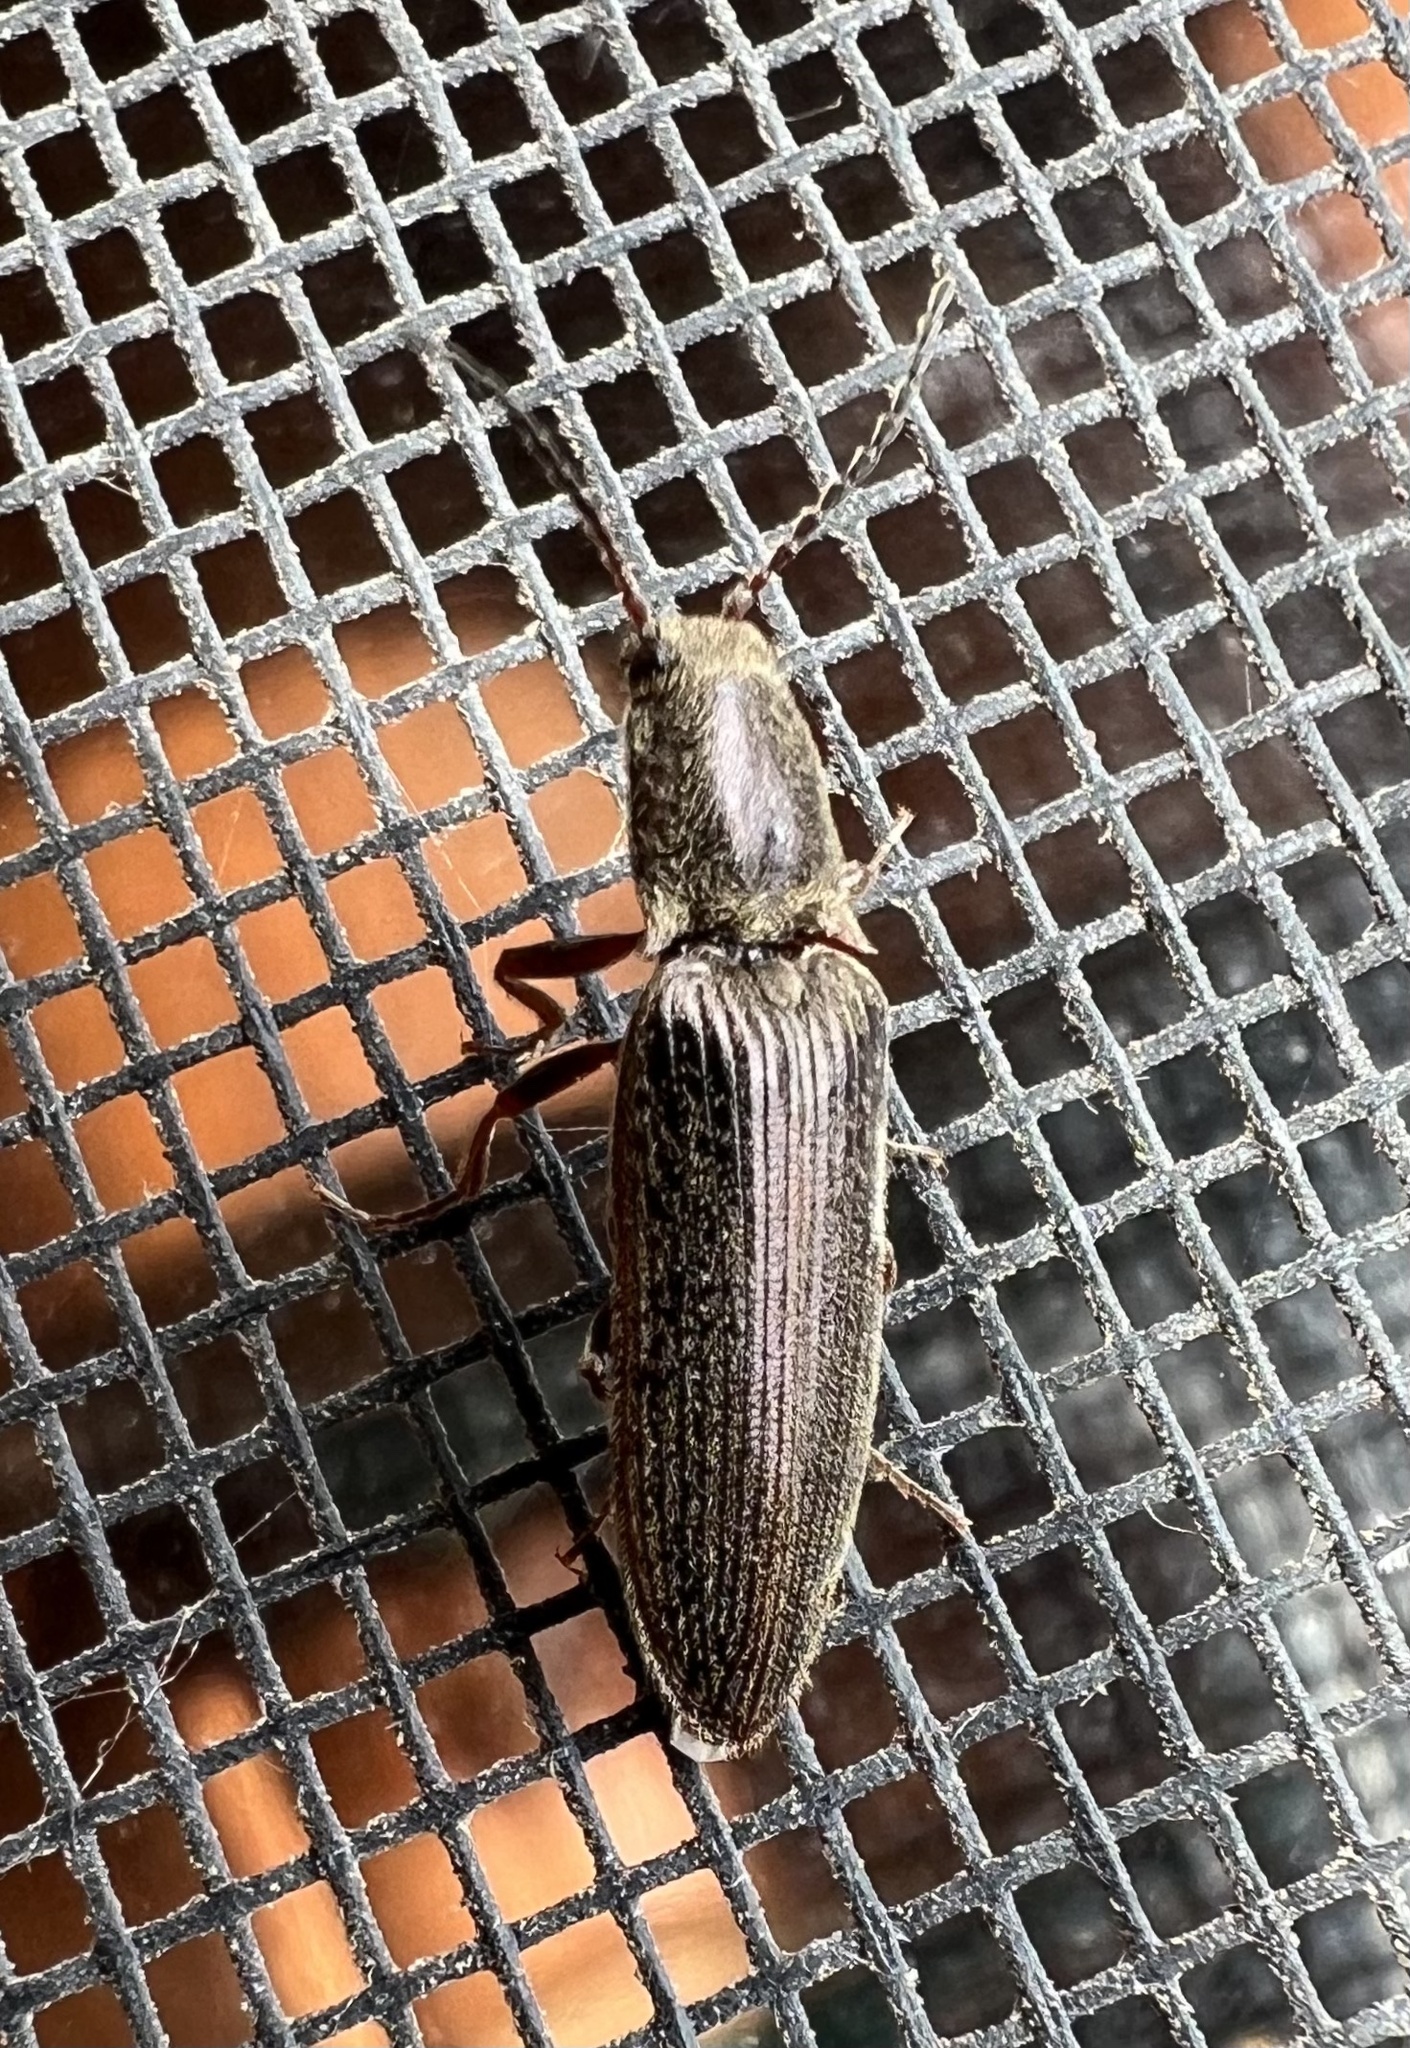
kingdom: Animalia
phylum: Arthropoda
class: Insecta
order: Coleoptera
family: Elateridae
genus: Sylvanelater
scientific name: Sylvanelater cylindriformis
